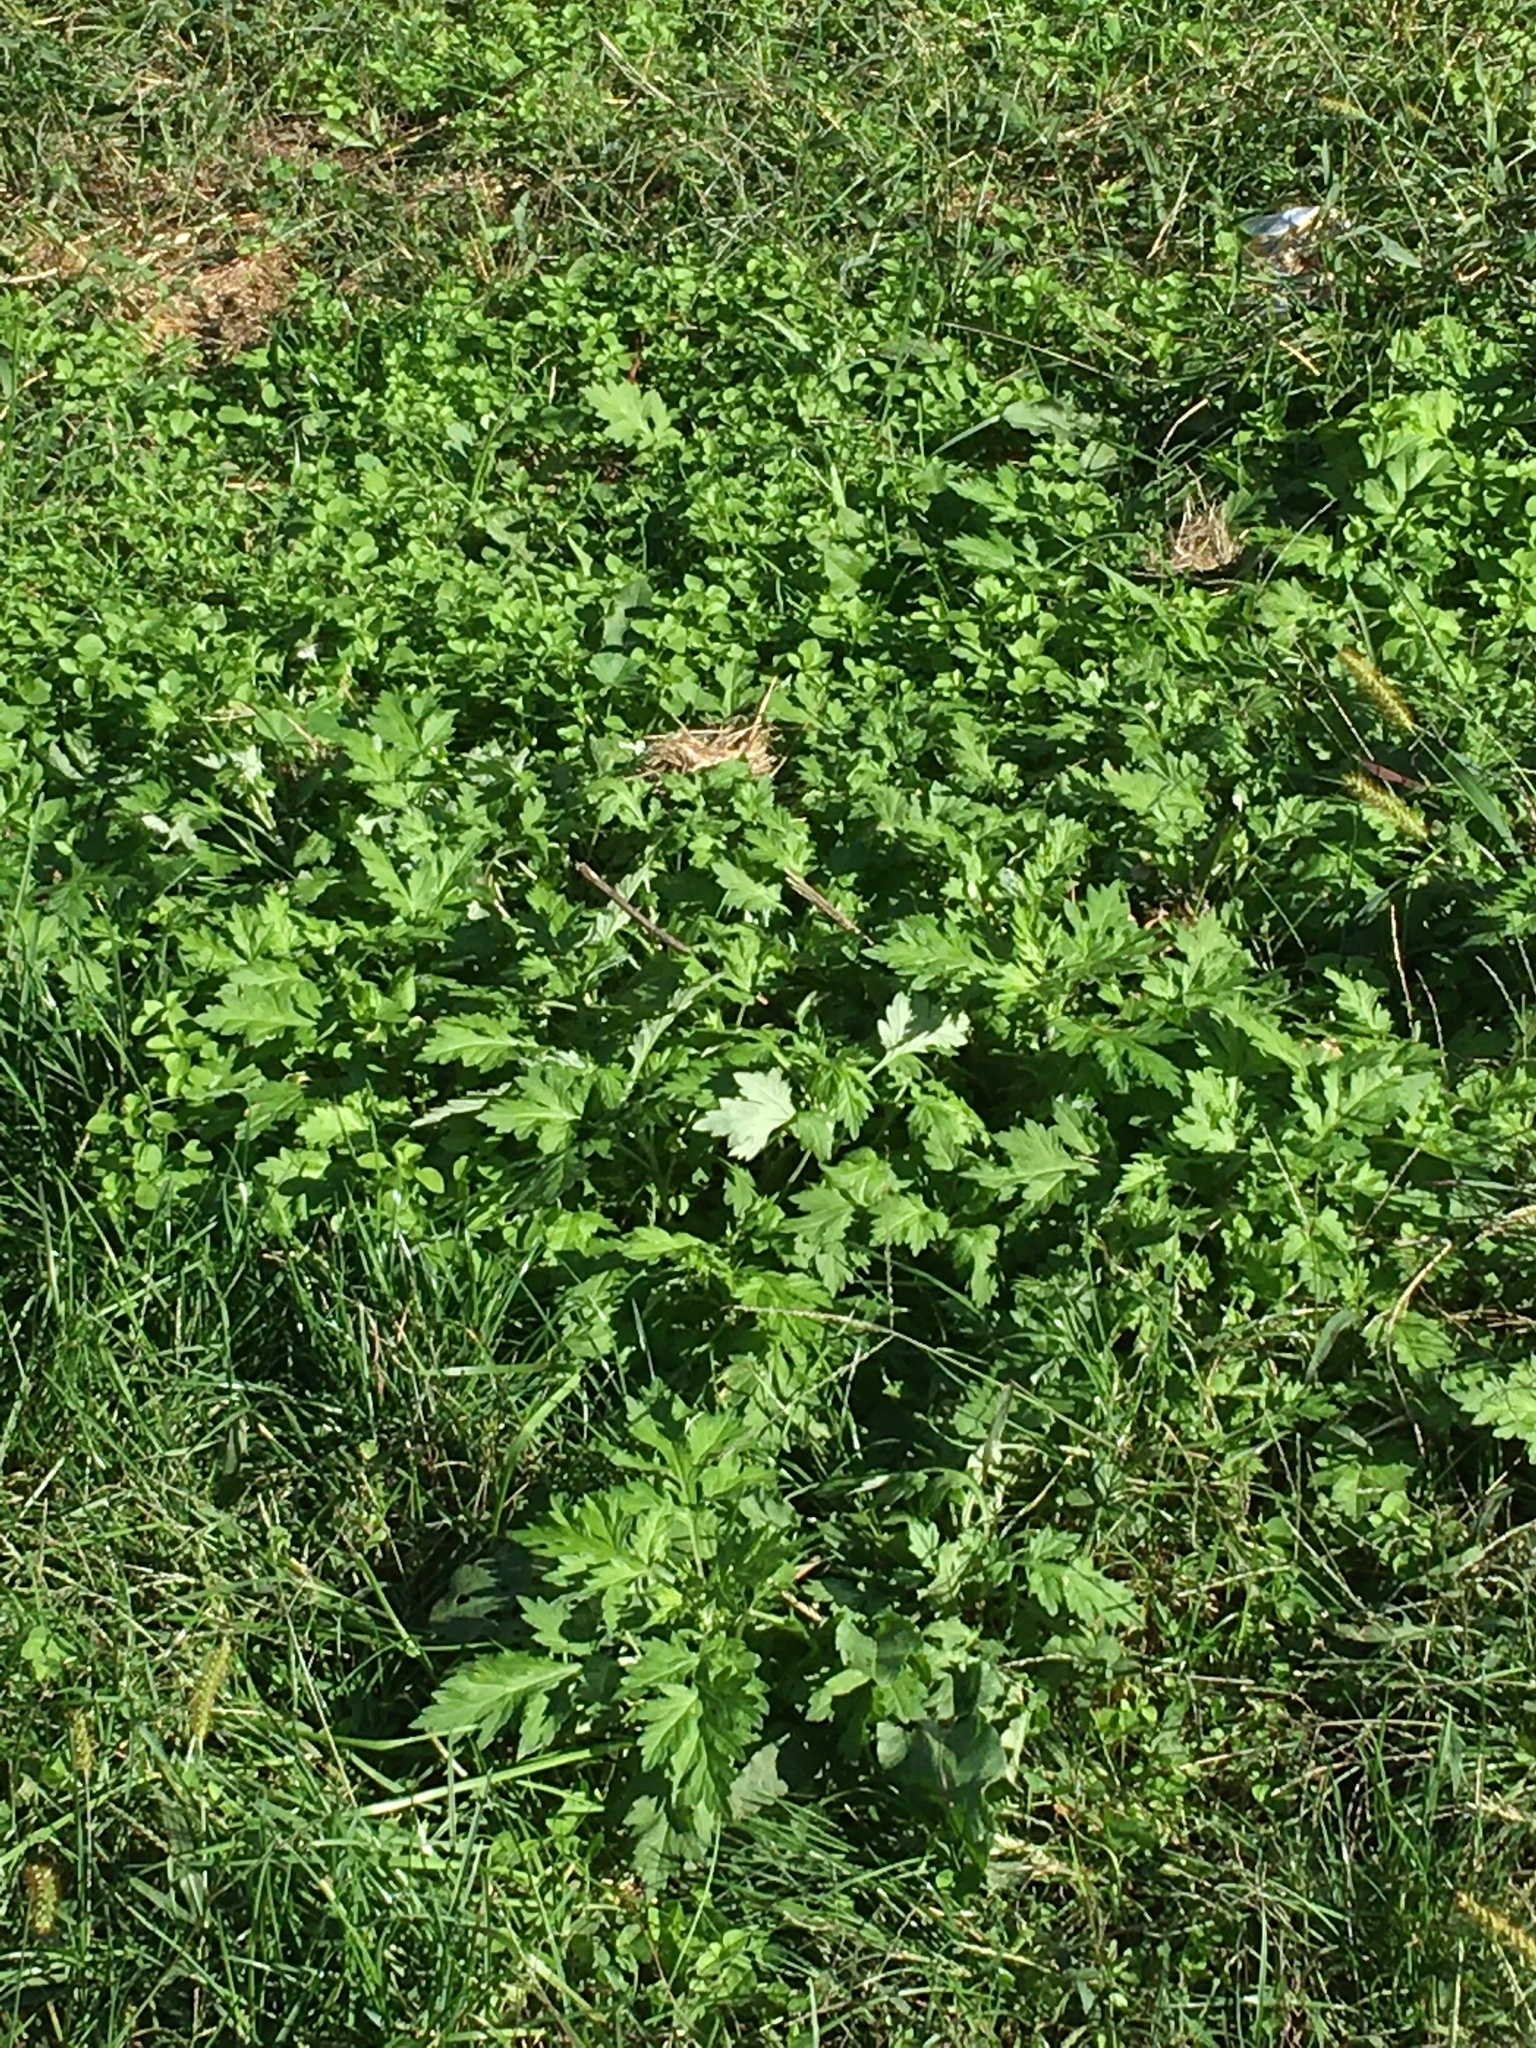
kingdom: Plantae
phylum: Tracheophyta
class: Magnoliopsida
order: Asterales
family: Asteraceae
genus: Artemisia
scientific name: Artemisia vulgaris
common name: Mugwort
